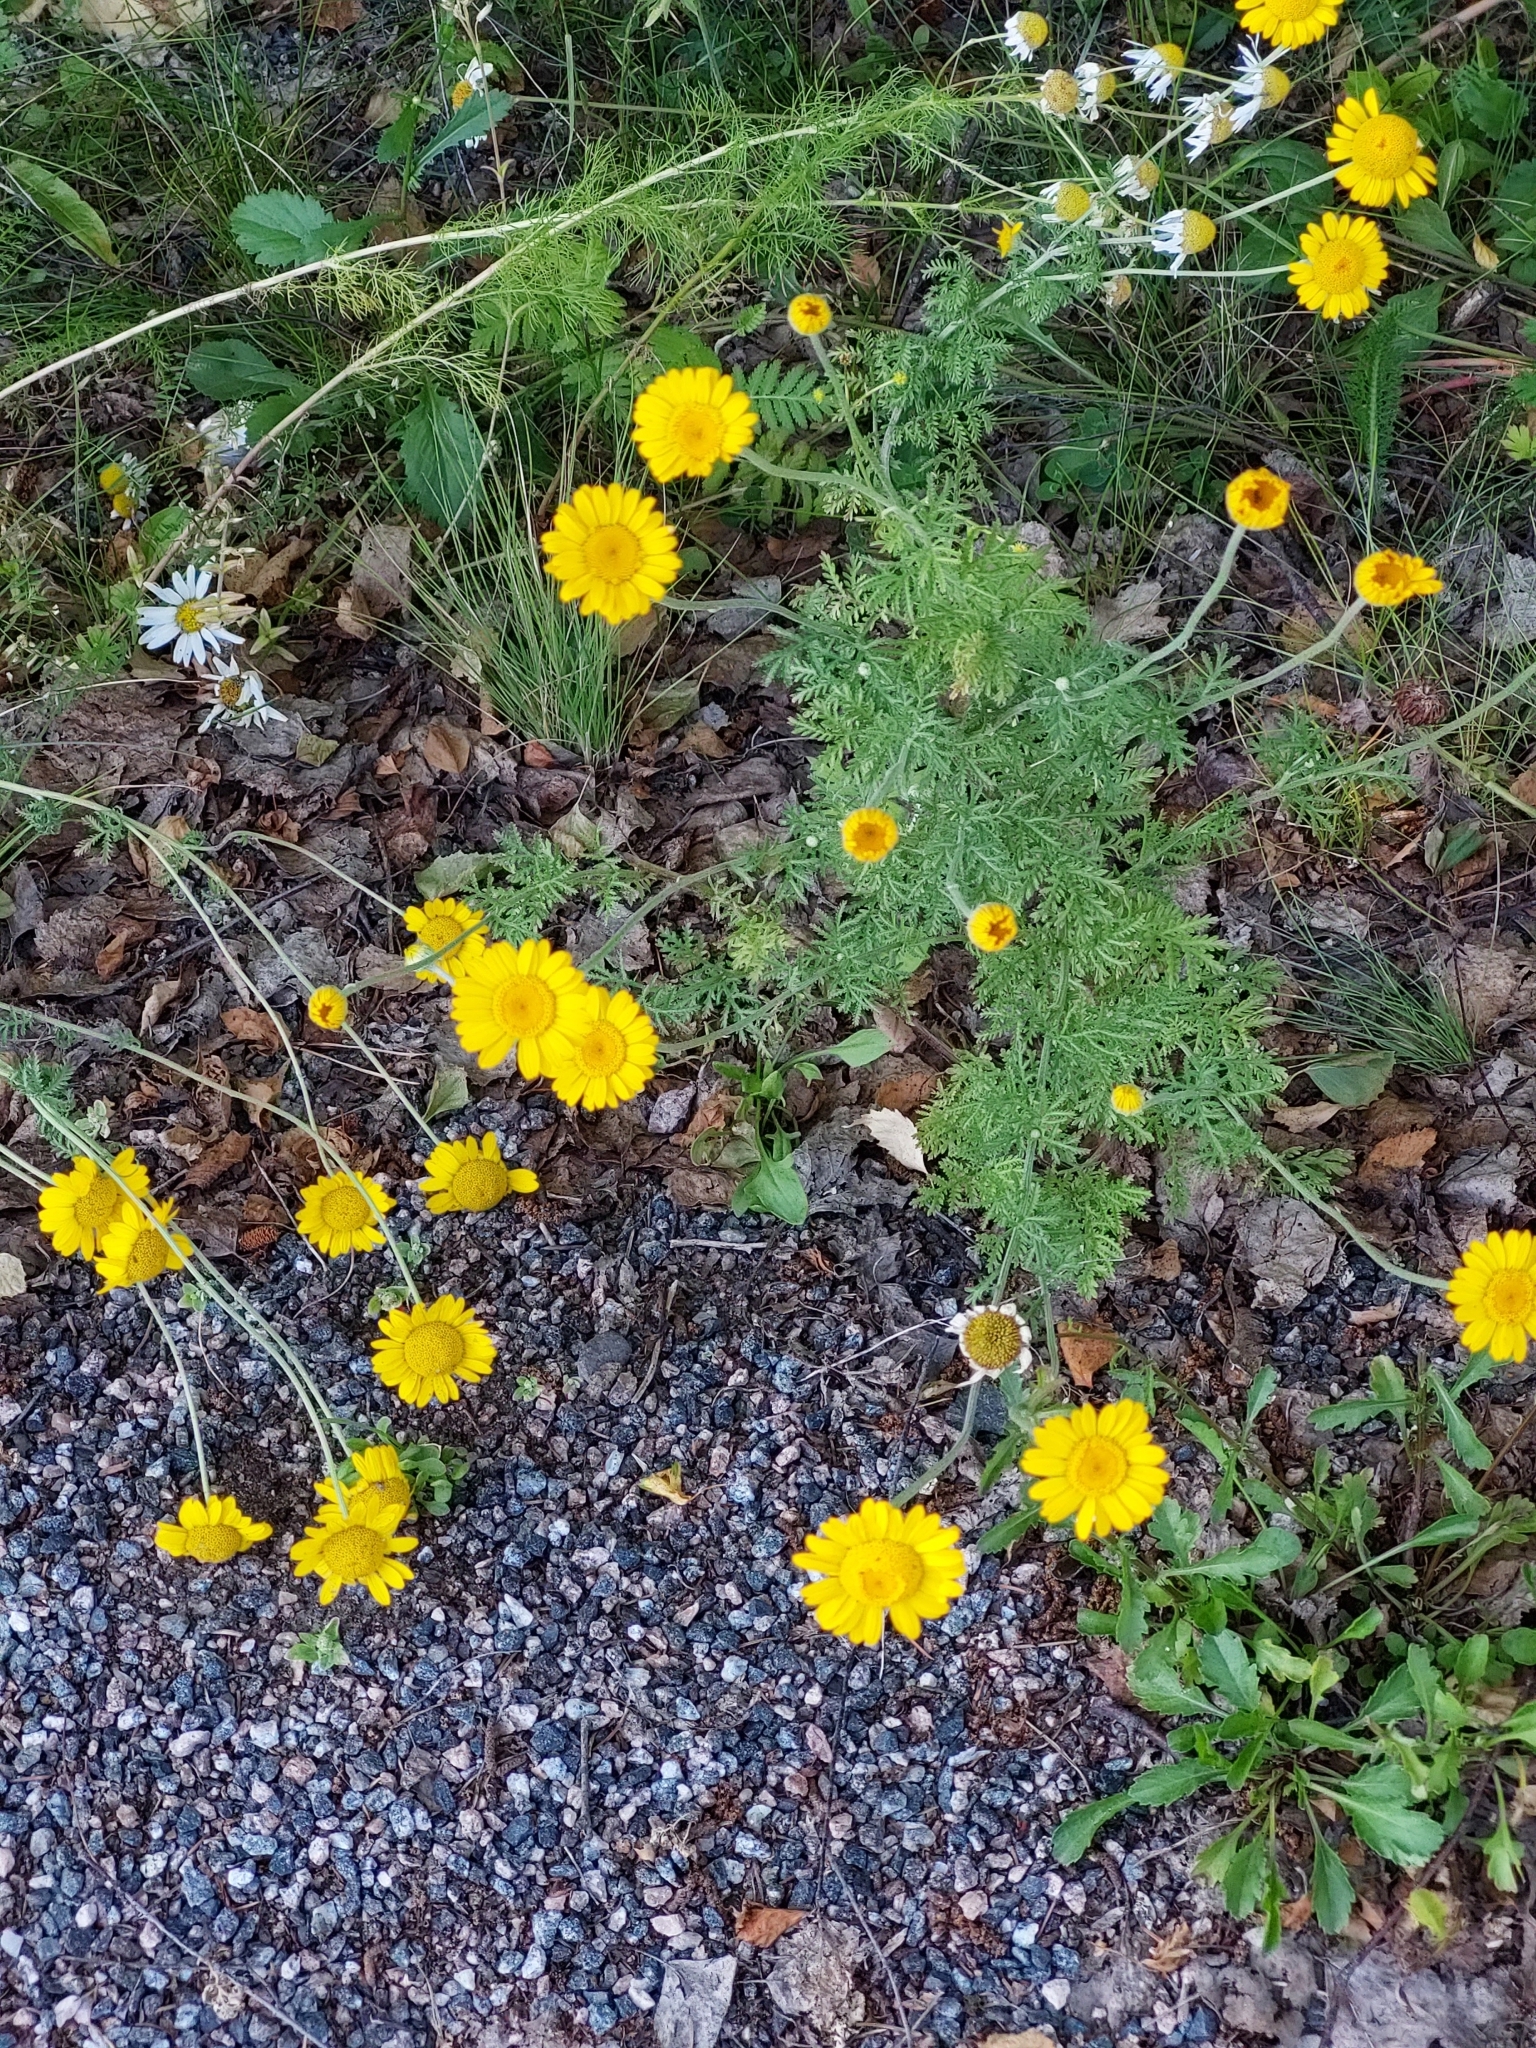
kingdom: Plantae
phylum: Tracheophyta
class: Magnoliopsida
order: Asterales
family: Asteraceae
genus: Cota
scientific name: Cota tinctoria
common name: Golden chamomile
